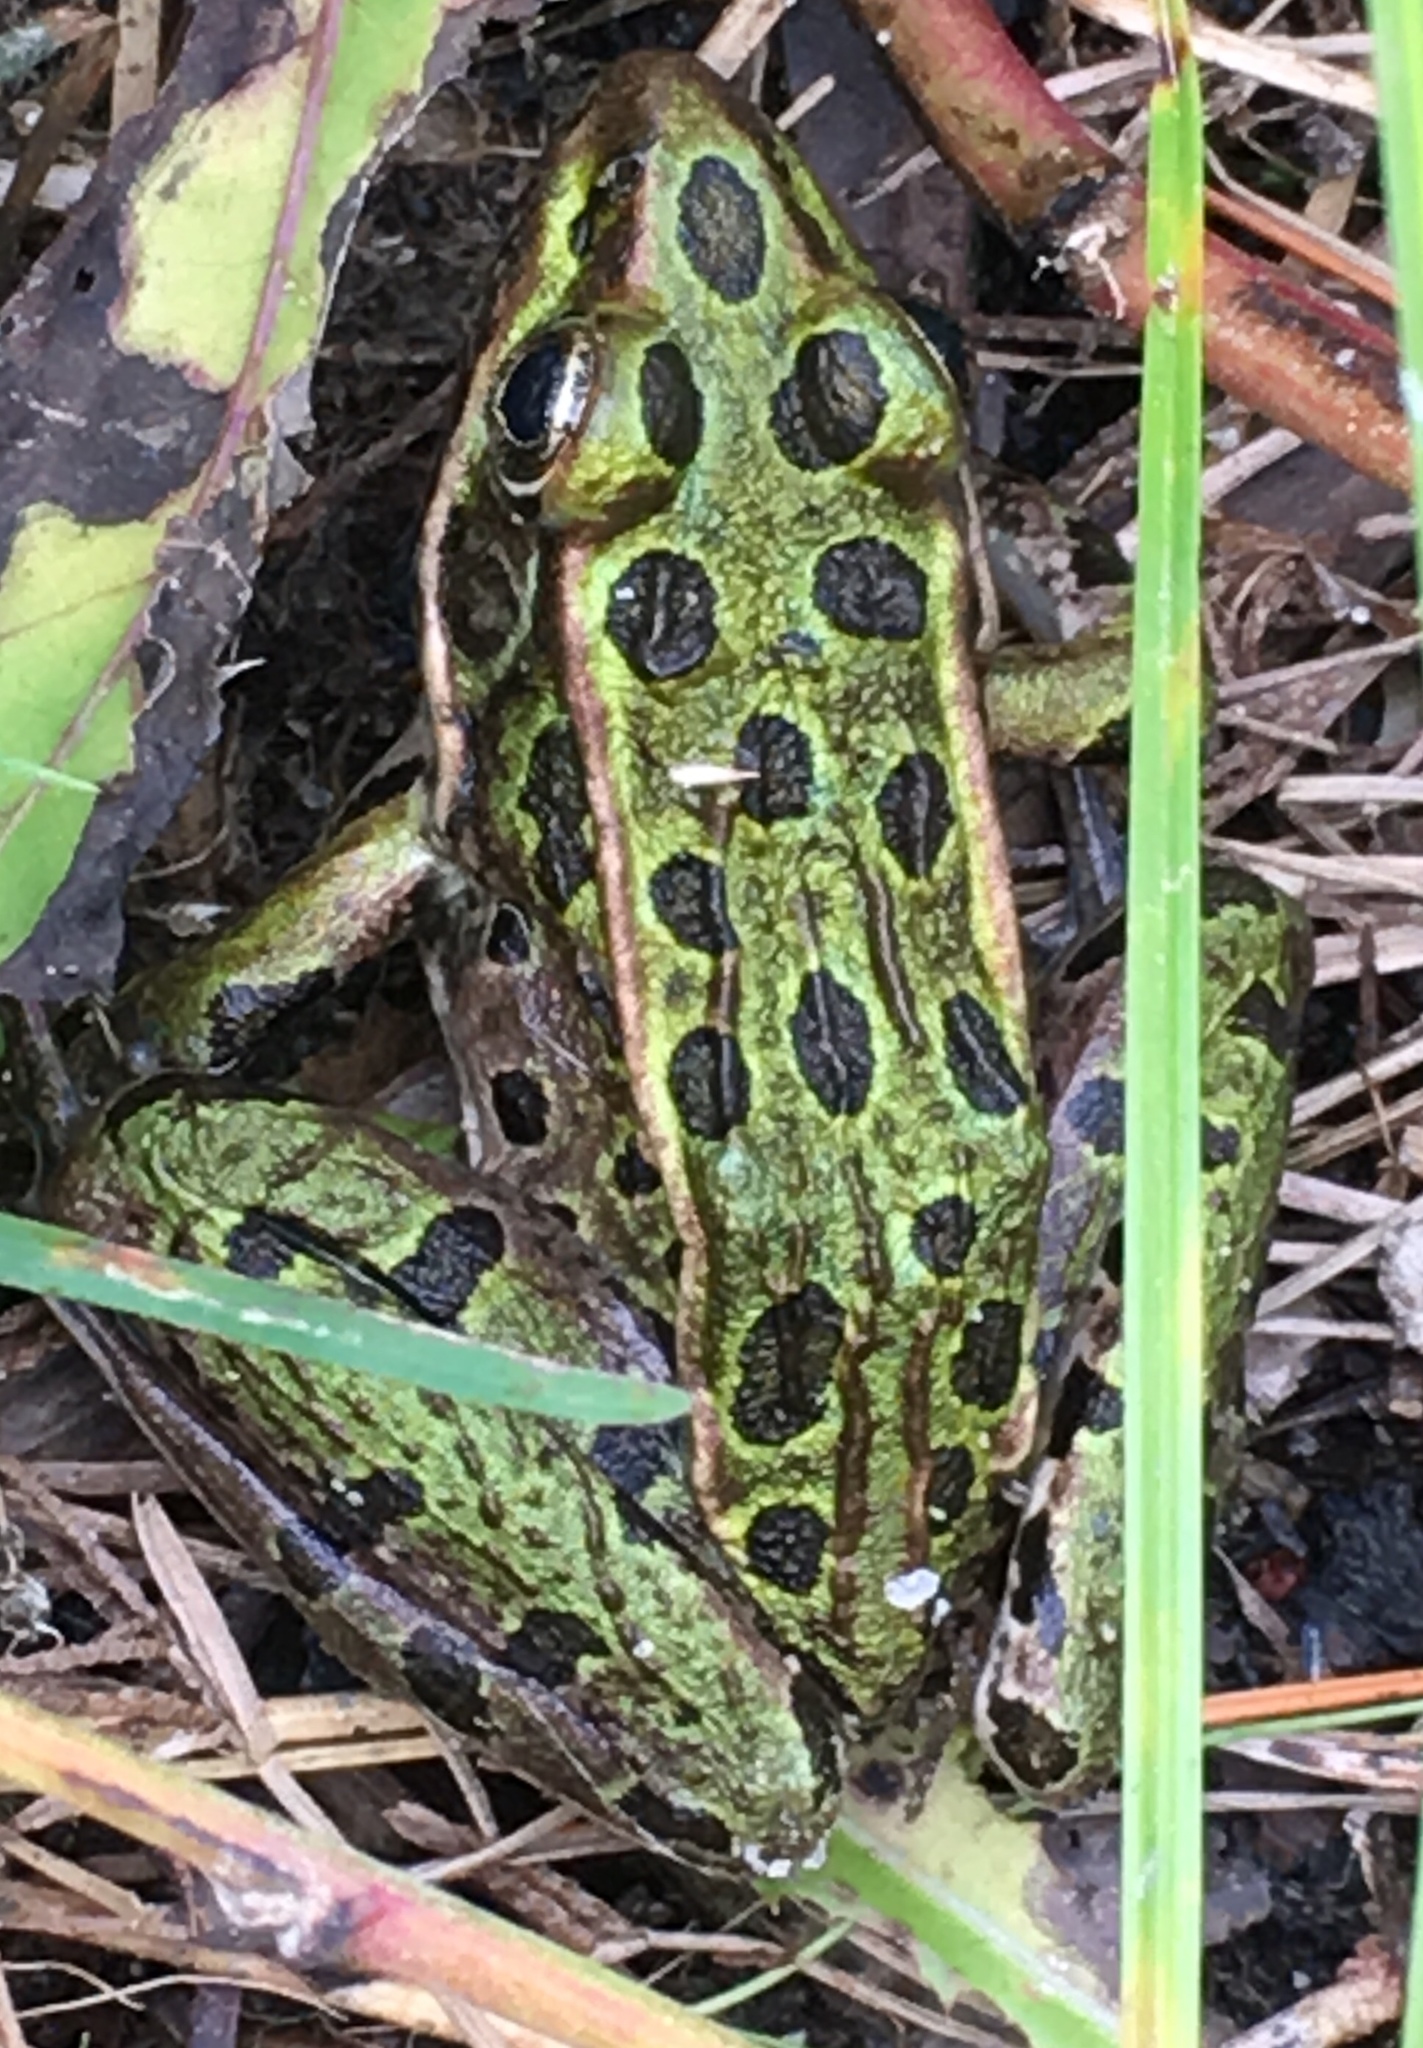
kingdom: Animalia
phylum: Chordata
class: Amphibia
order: Anura
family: Ranidae
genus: Lithobates
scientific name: Lithobates pipiens
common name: Northern leopard frog
